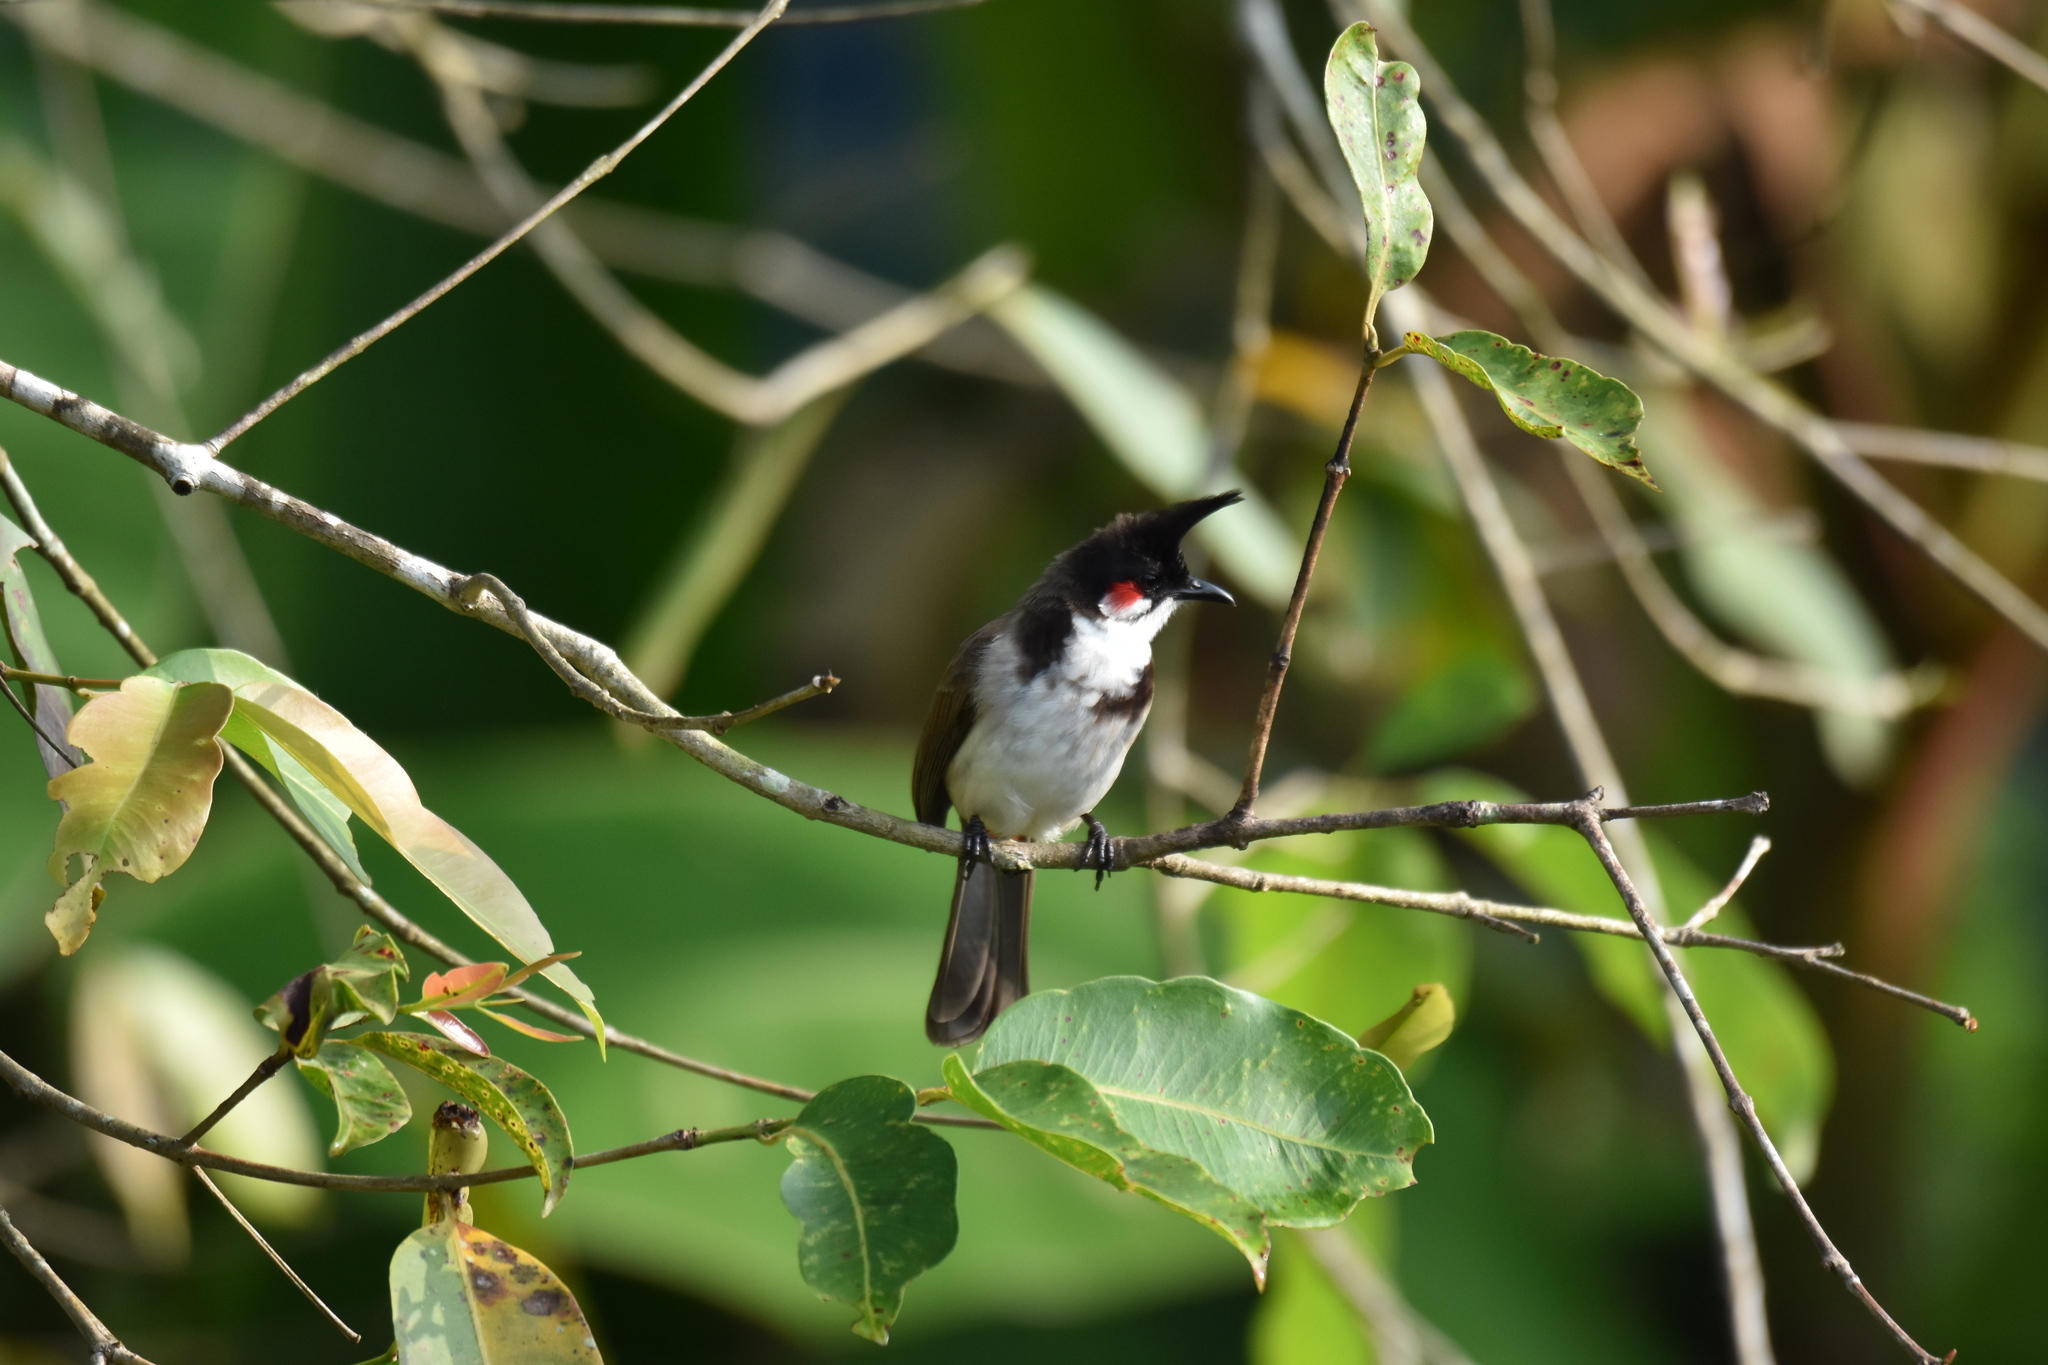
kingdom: Animalia
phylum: Chordata
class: Aves
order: Passeriformes
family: Pycnonotidae
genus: Pycnonotus
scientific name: Pycnonotus jocosus
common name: Red-whiskered bulbul
